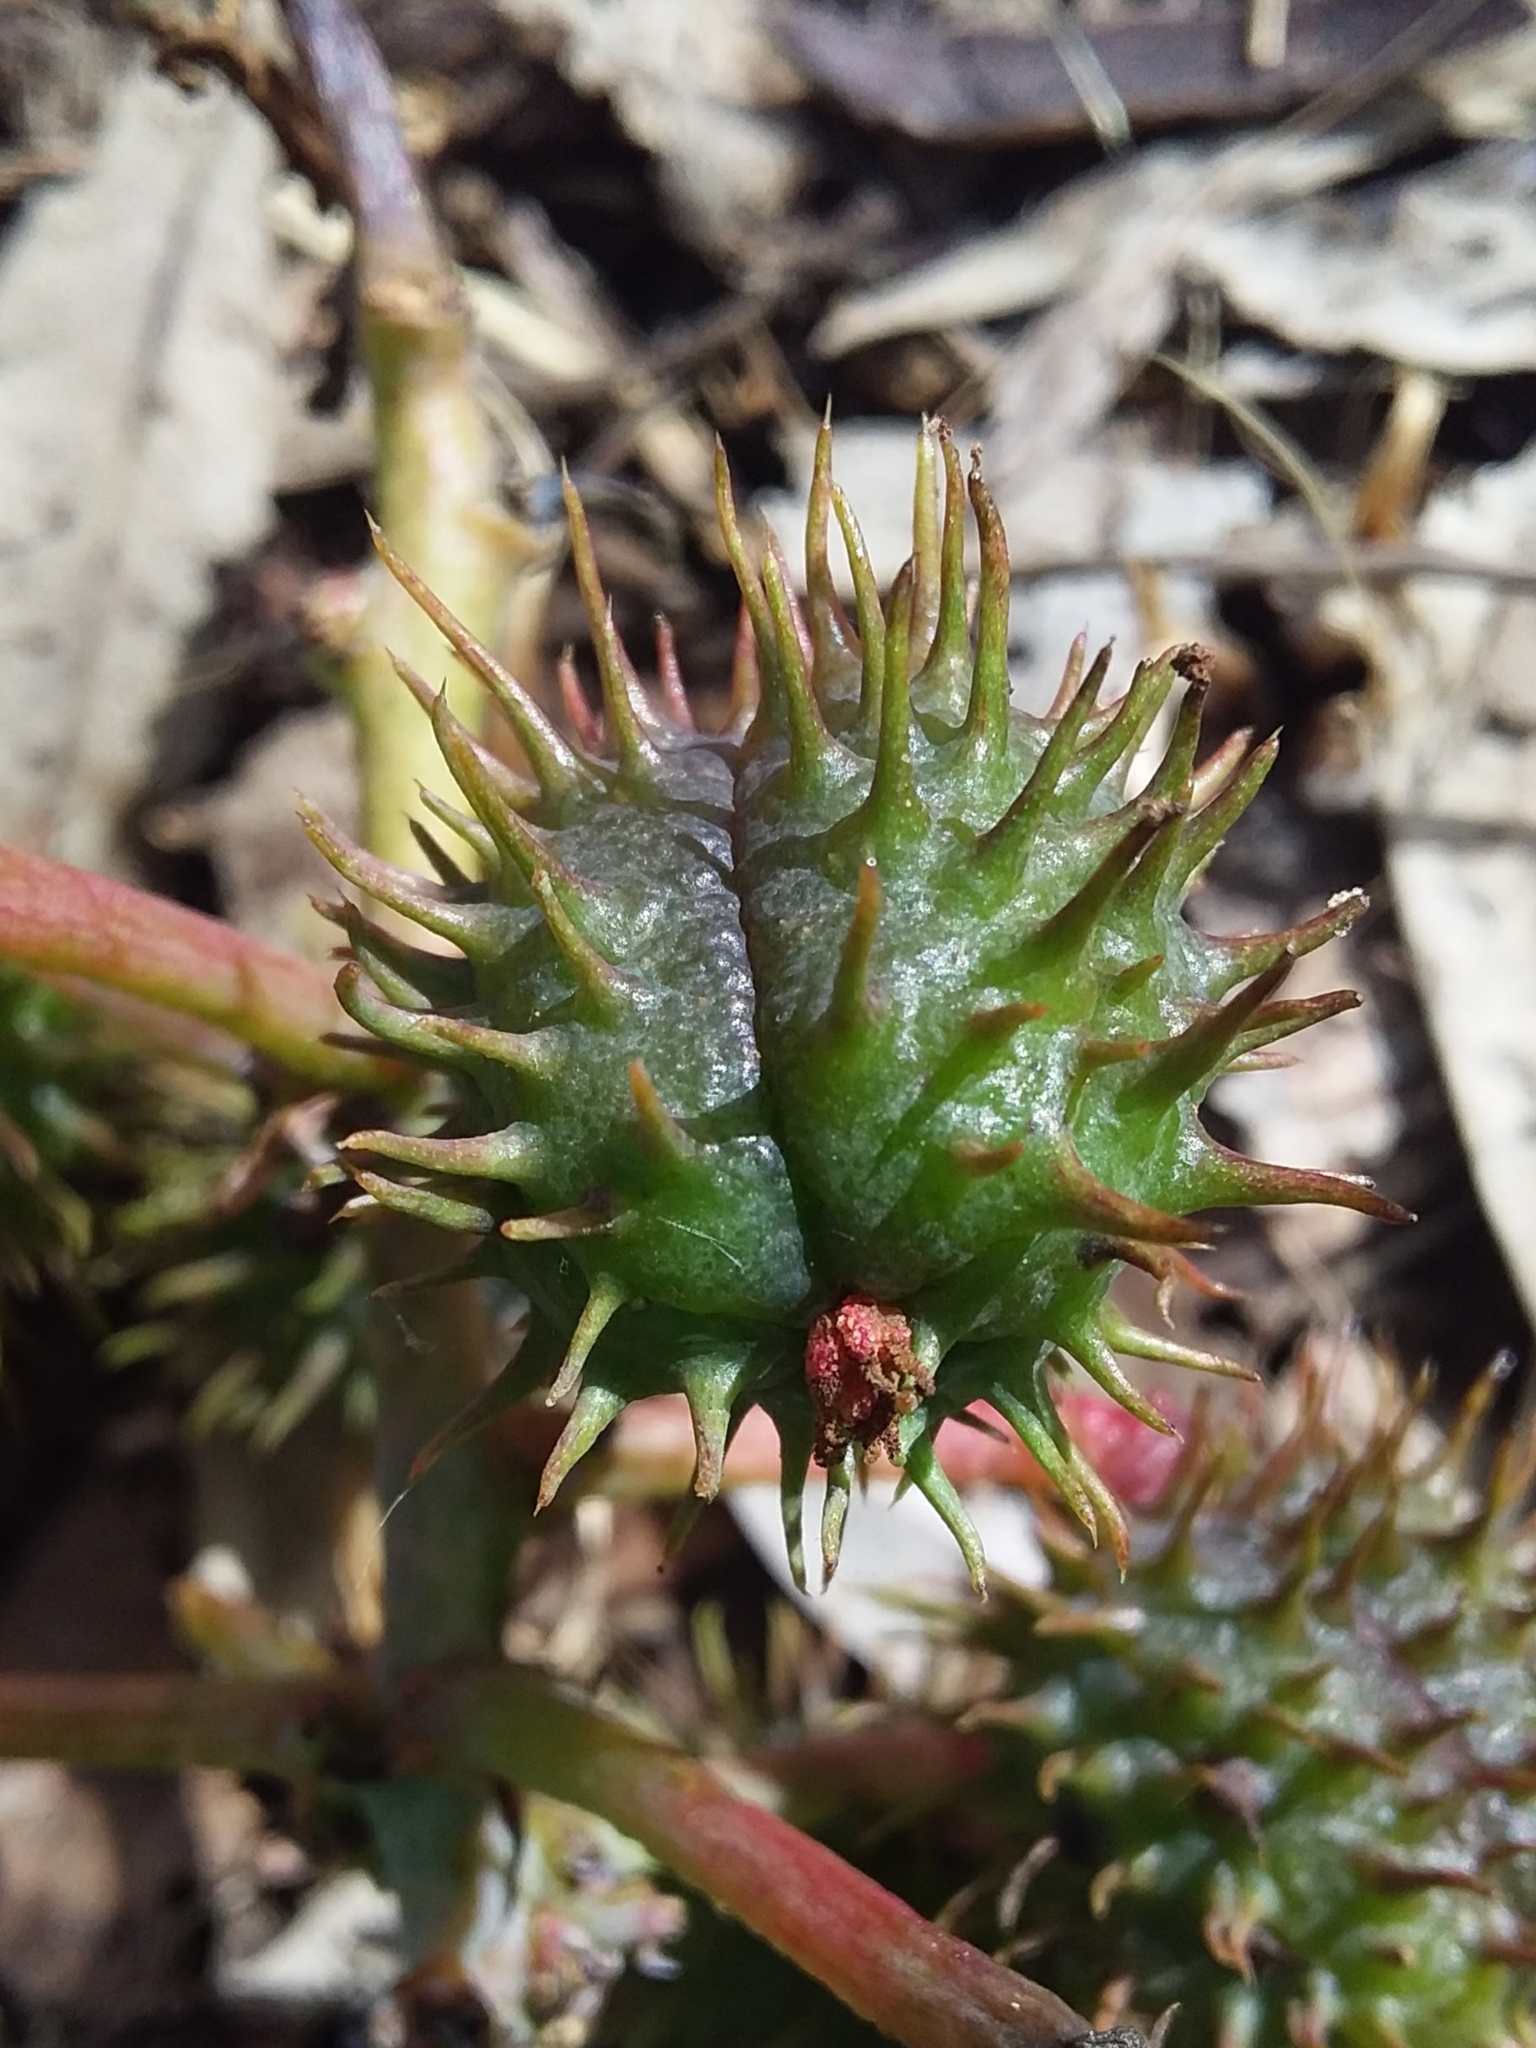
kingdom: Plantae
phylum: Tracheophyta
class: Magnoliopsida
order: Malpighiales
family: Euphorbiaceae
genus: Ricinus
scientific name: Ricinus communis
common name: Castor-oil-plant
